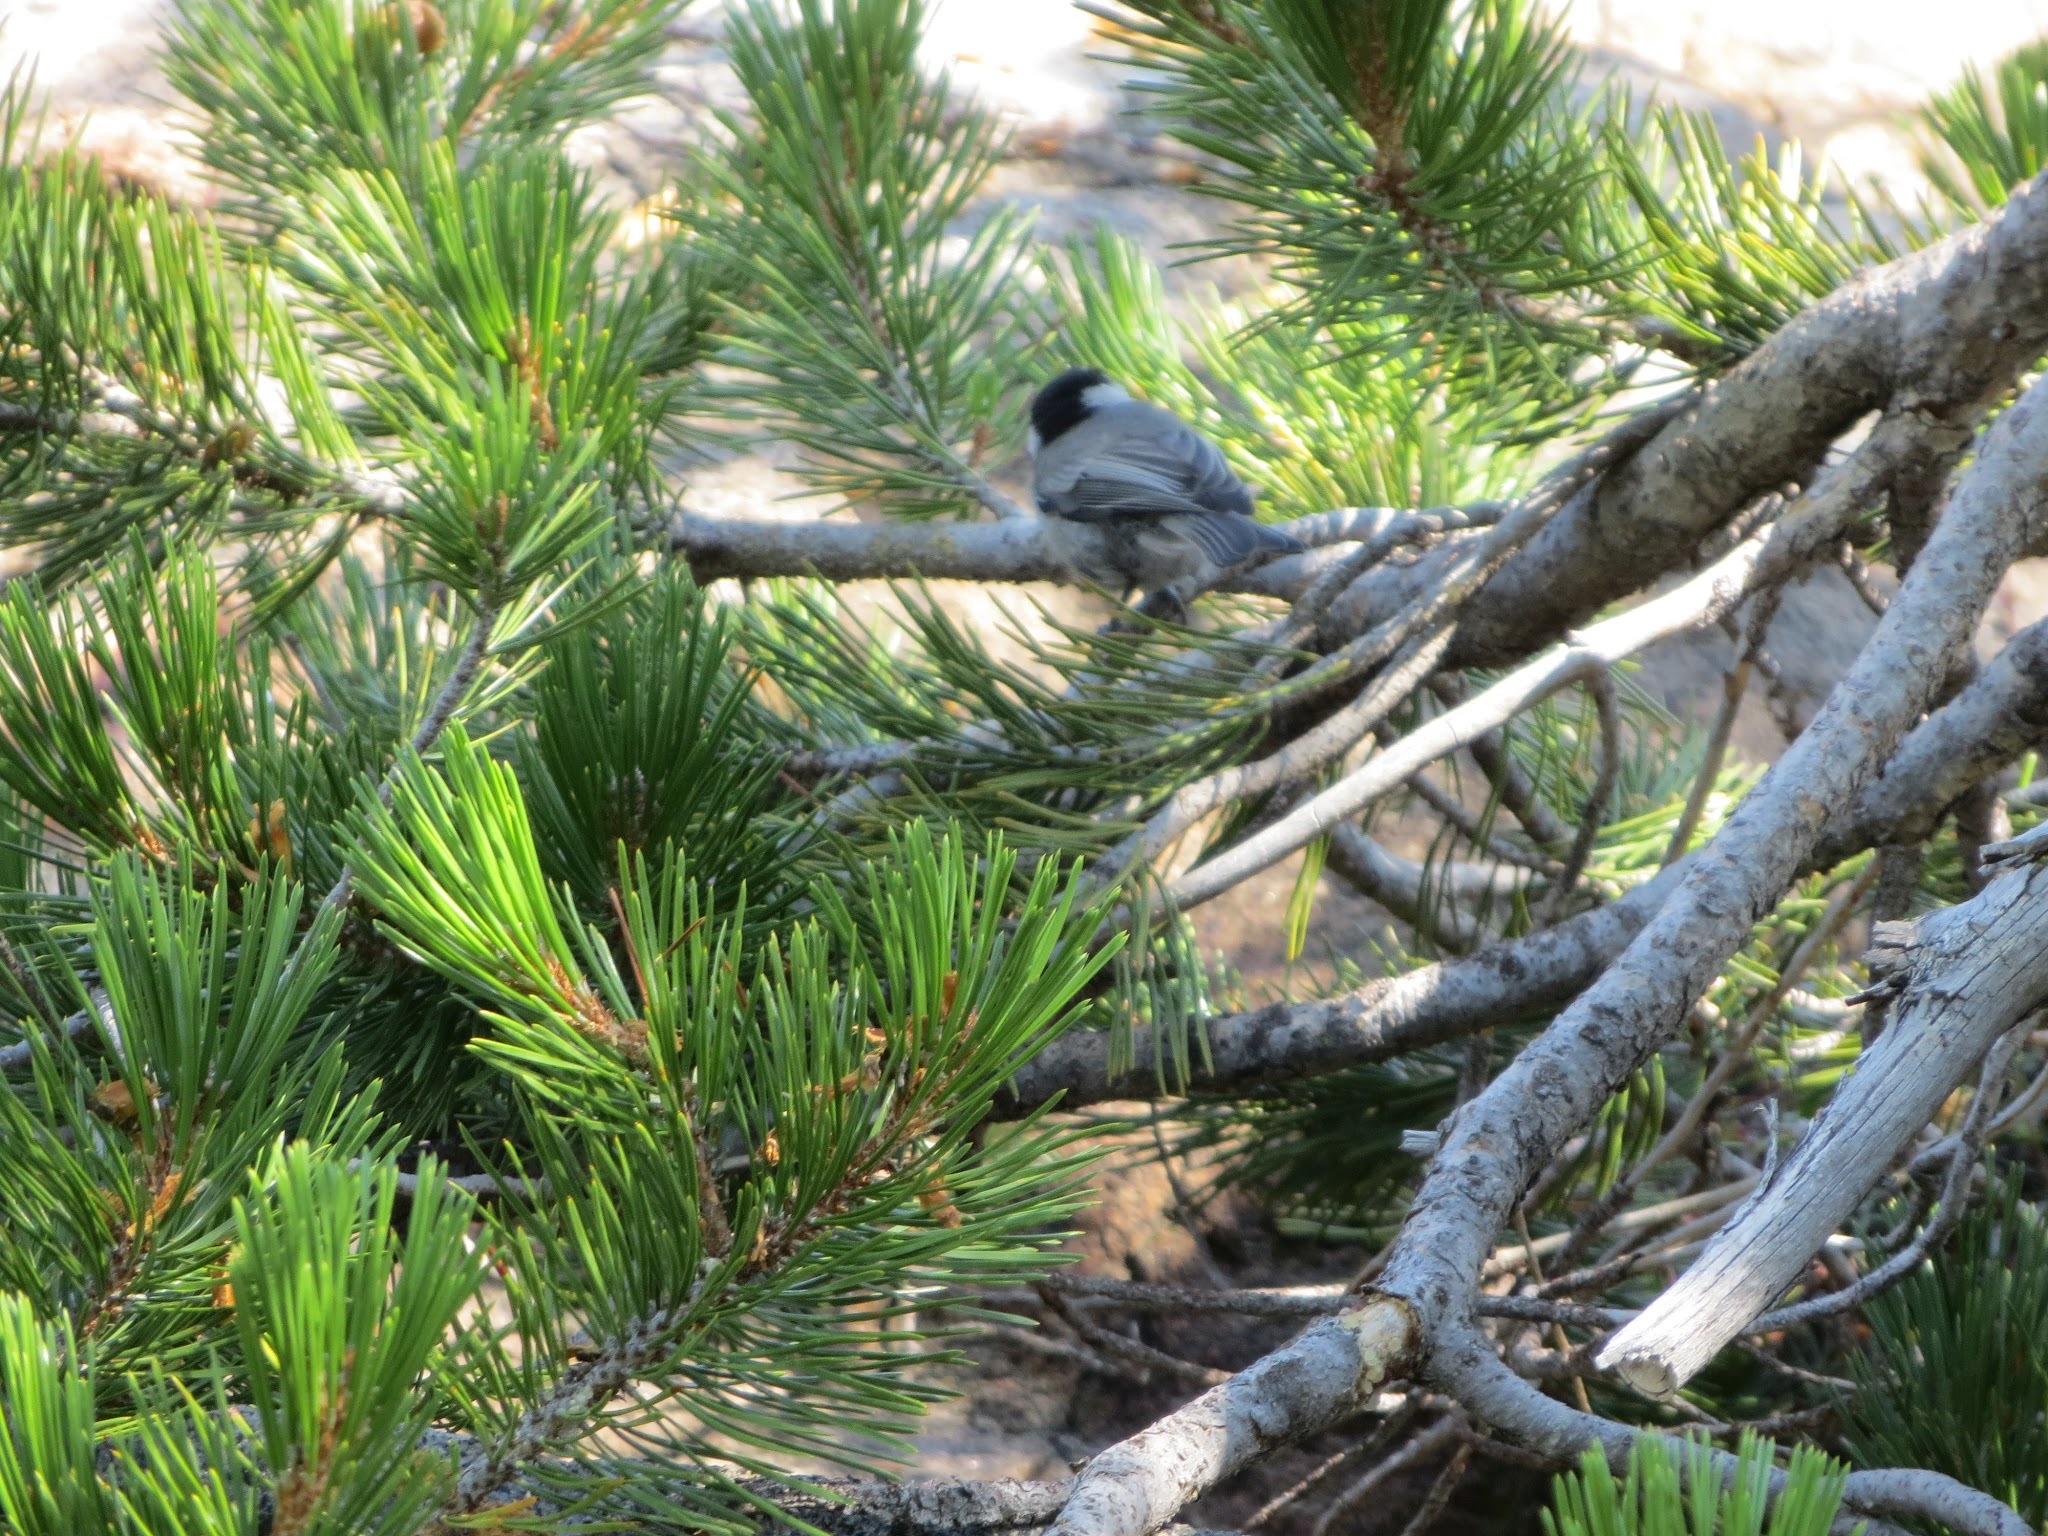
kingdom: Animalia
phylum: Chordata
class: Aves
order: Passeriformes
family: Paridae
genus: Poecile
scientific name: Poecile gambeli
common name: Mountain chickadee
